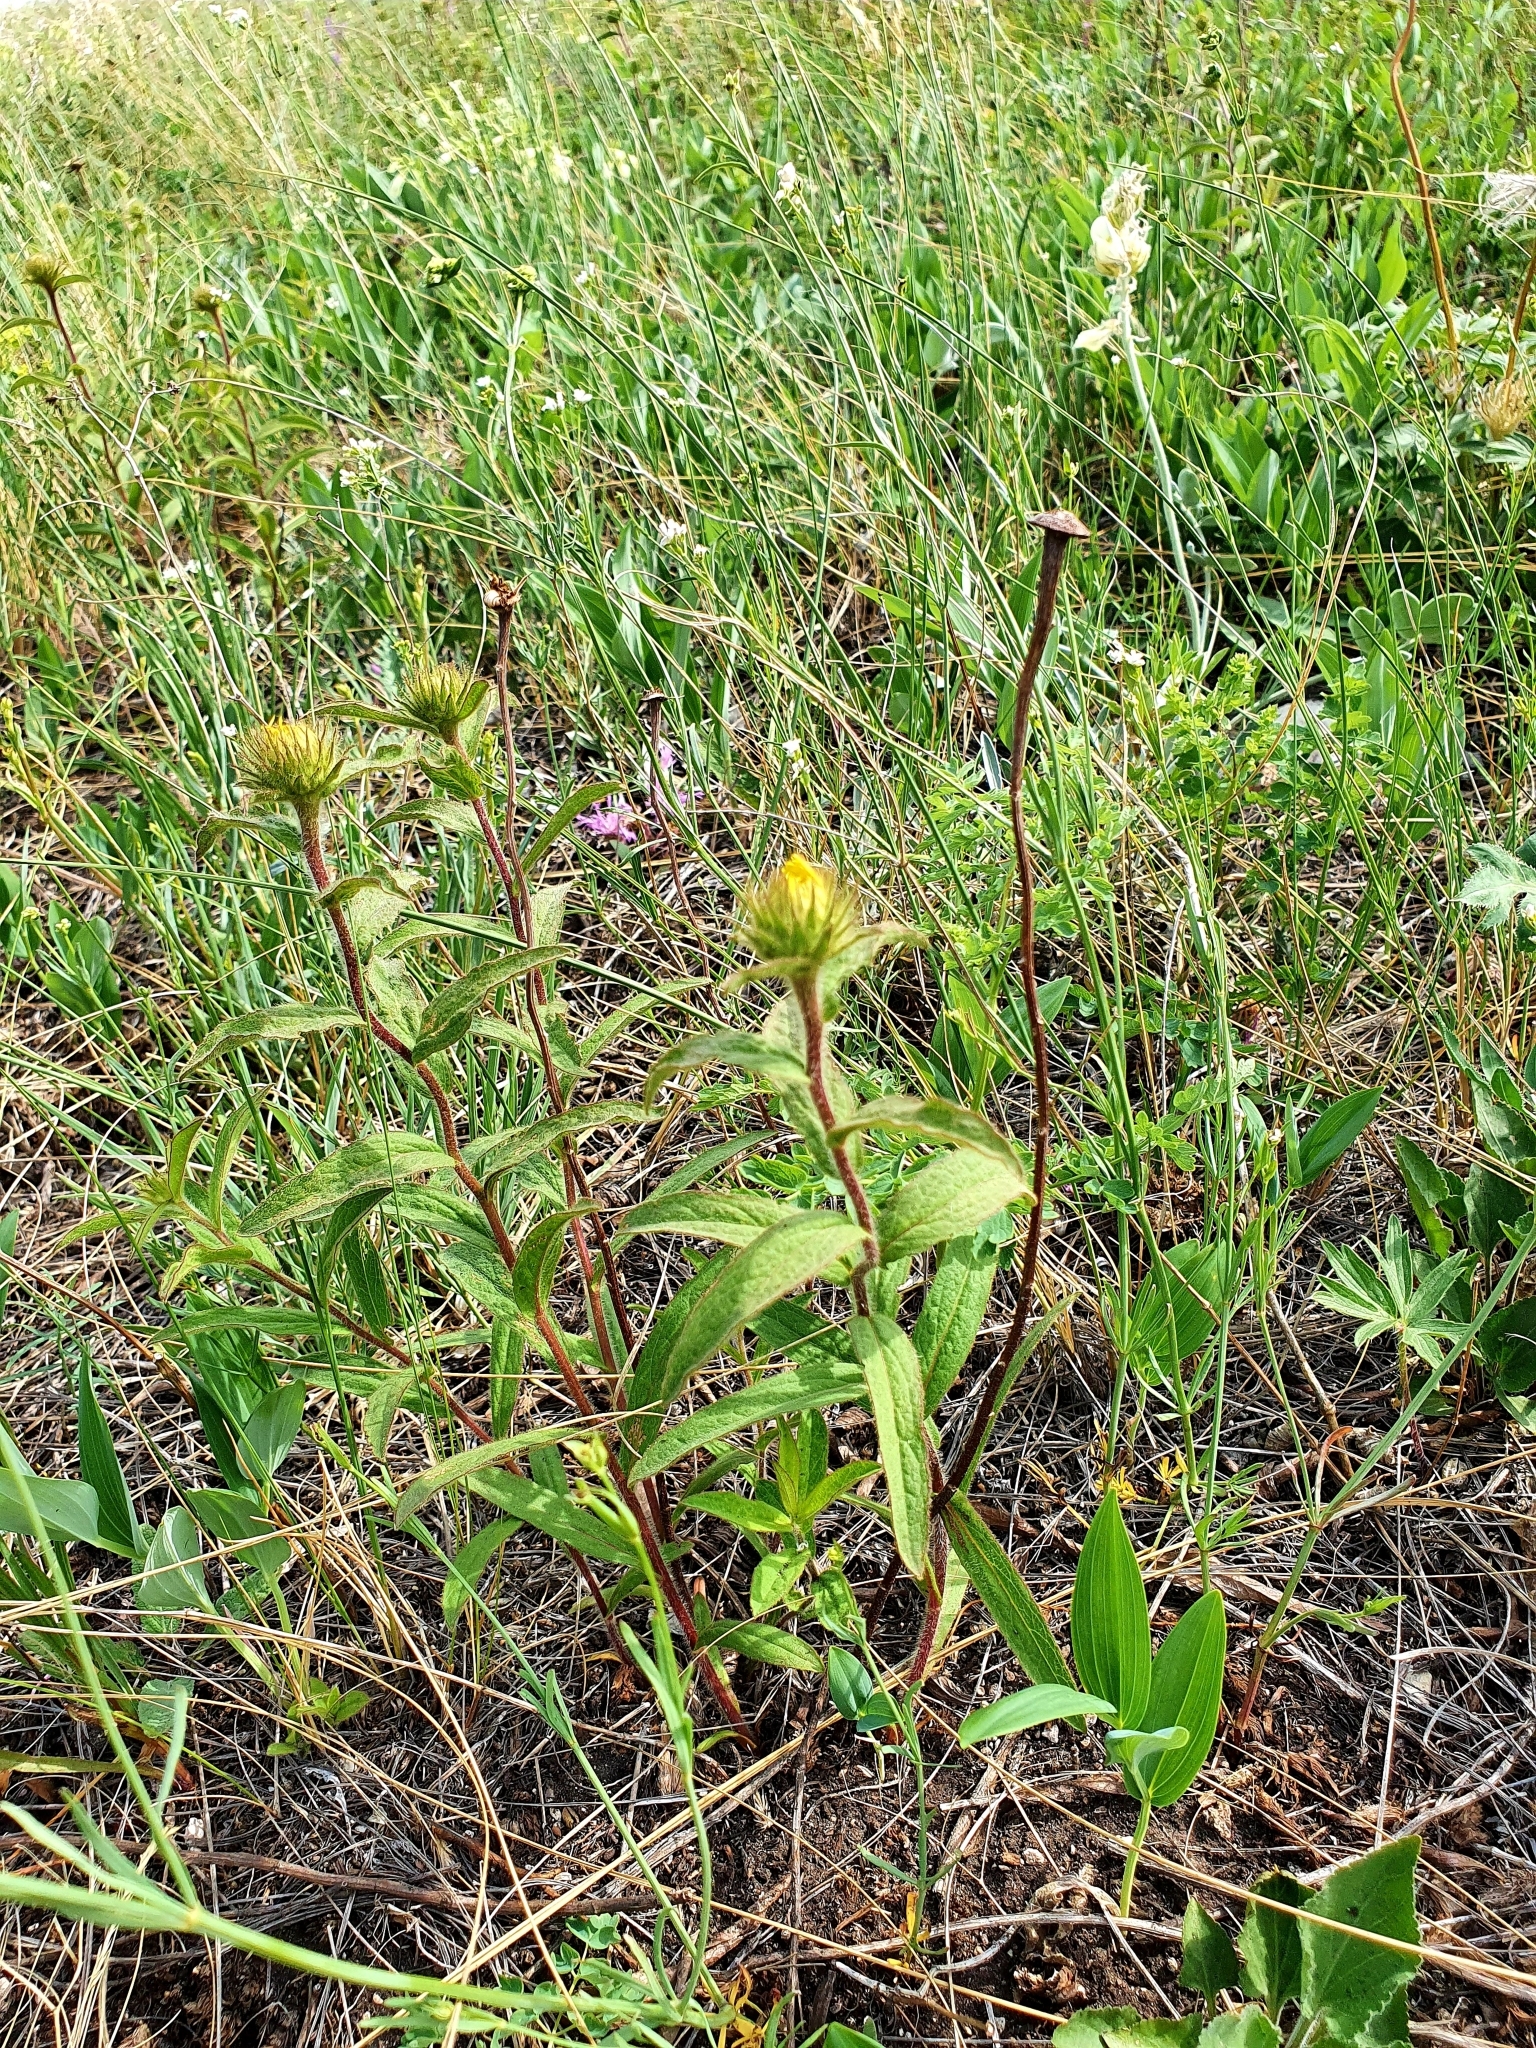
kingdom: Plantae
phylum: Tracheophyta
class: Magnoliopsida
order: Asterales
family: Asteraceae
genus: Pentanema
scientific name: Pentanema hirtum
